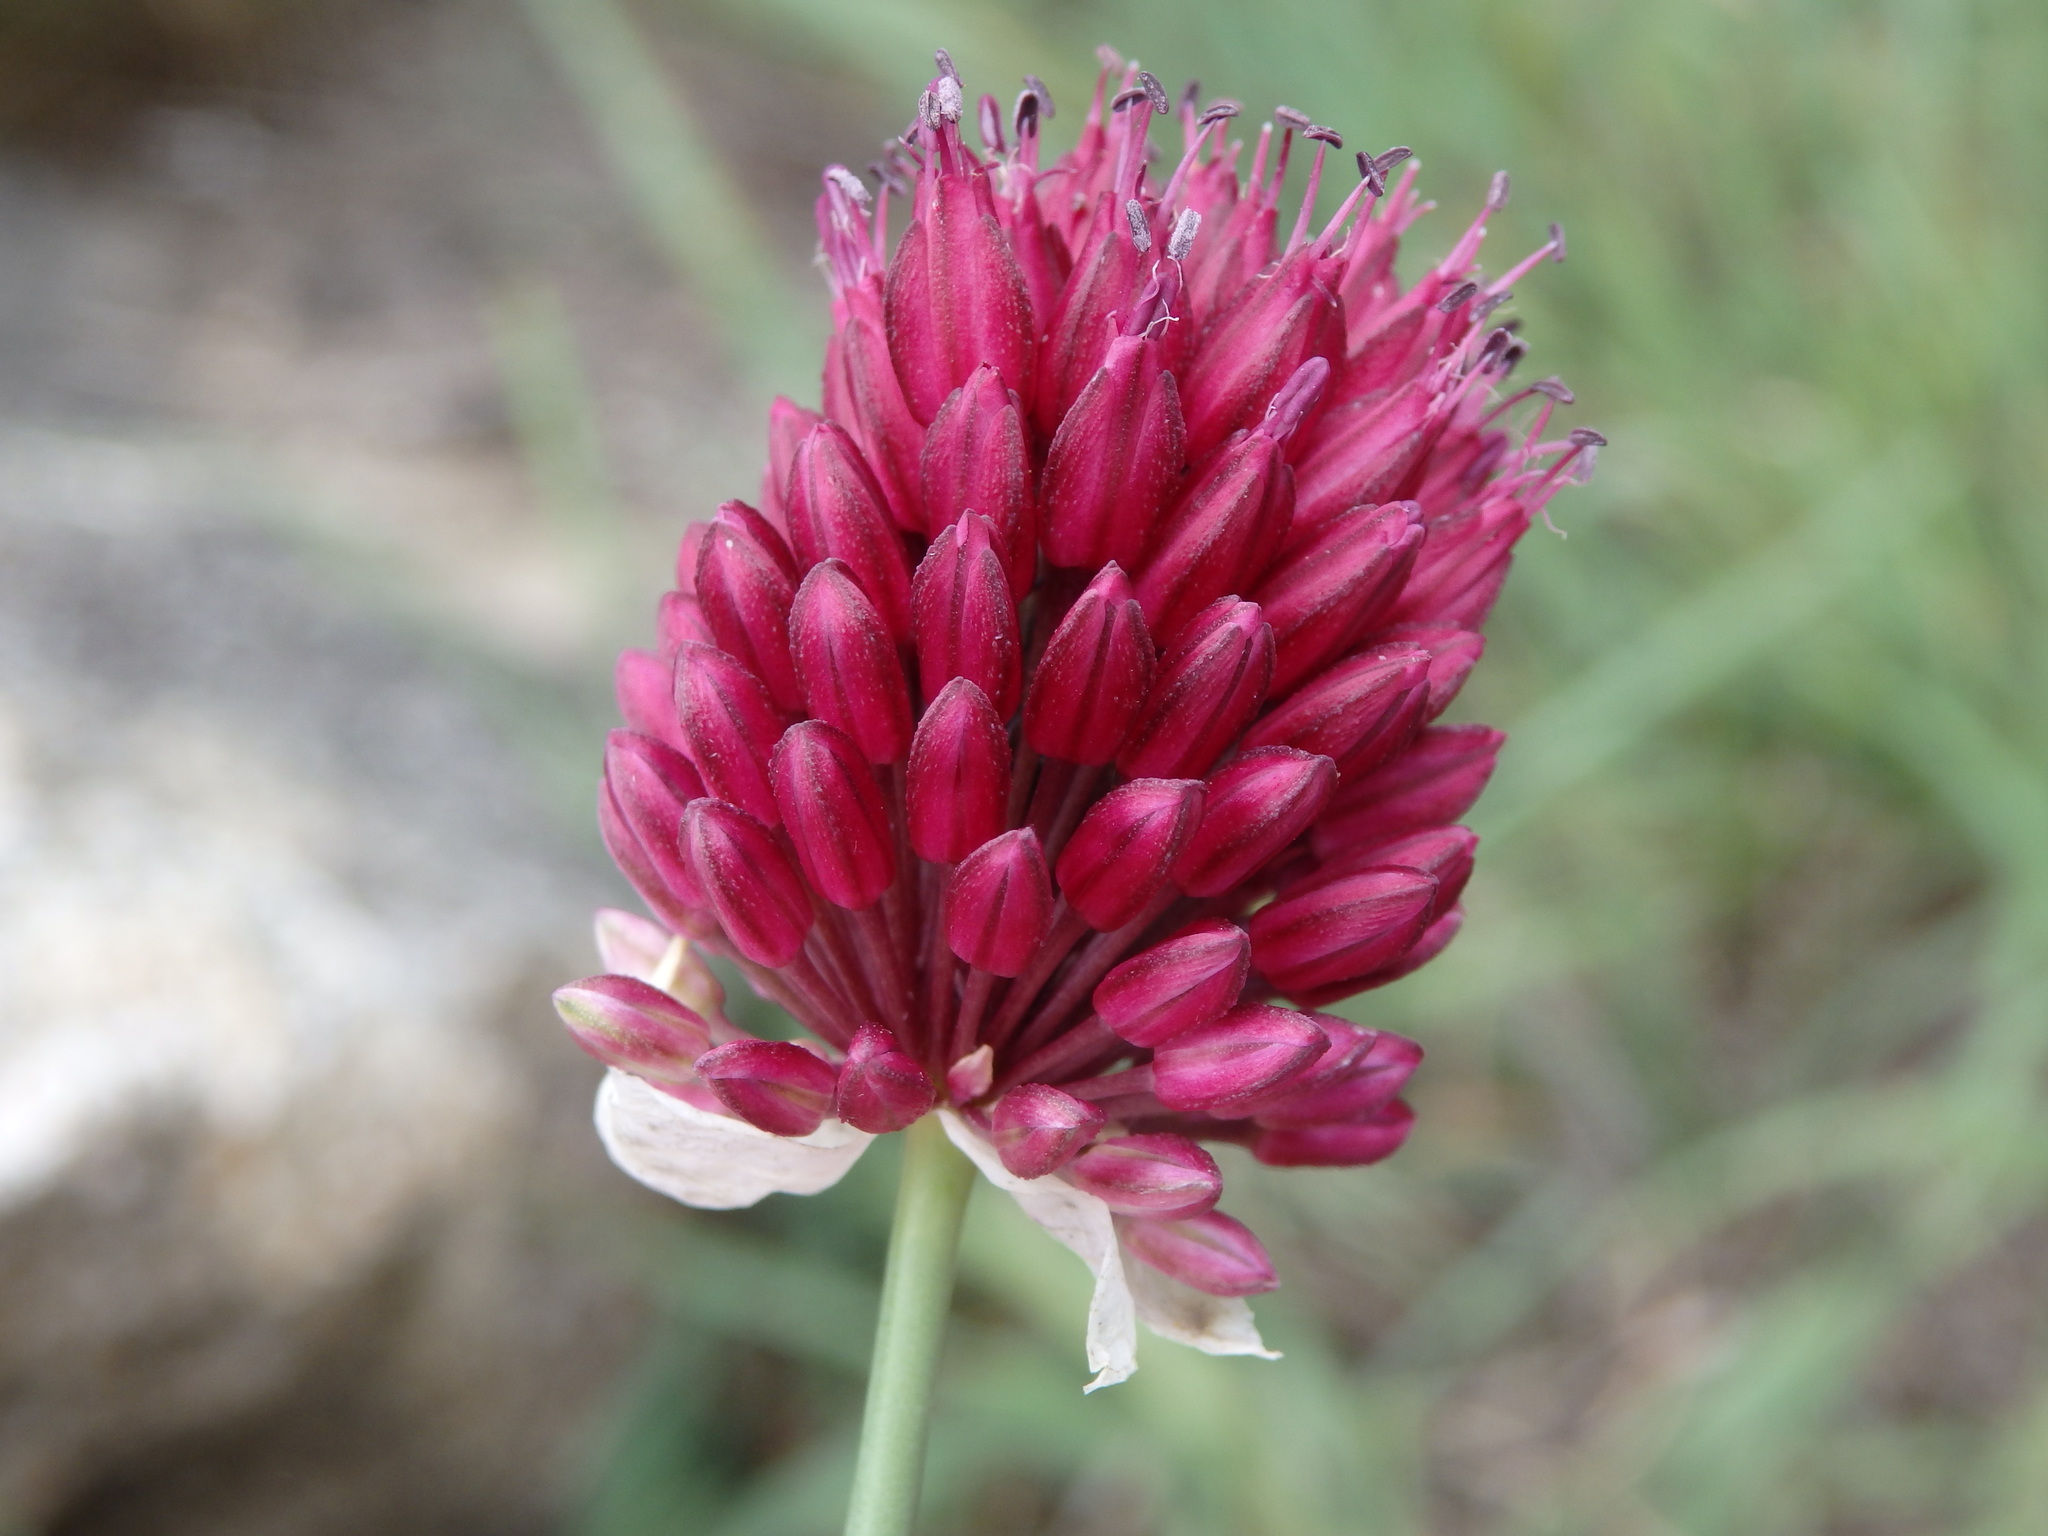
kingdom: Plantae
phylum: Tracheophyta
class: Liliopsida
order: Asparagales
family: Amaryllidaceae
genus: Allium
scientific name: Allium sphaerocephalon
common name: Round-headed leek
